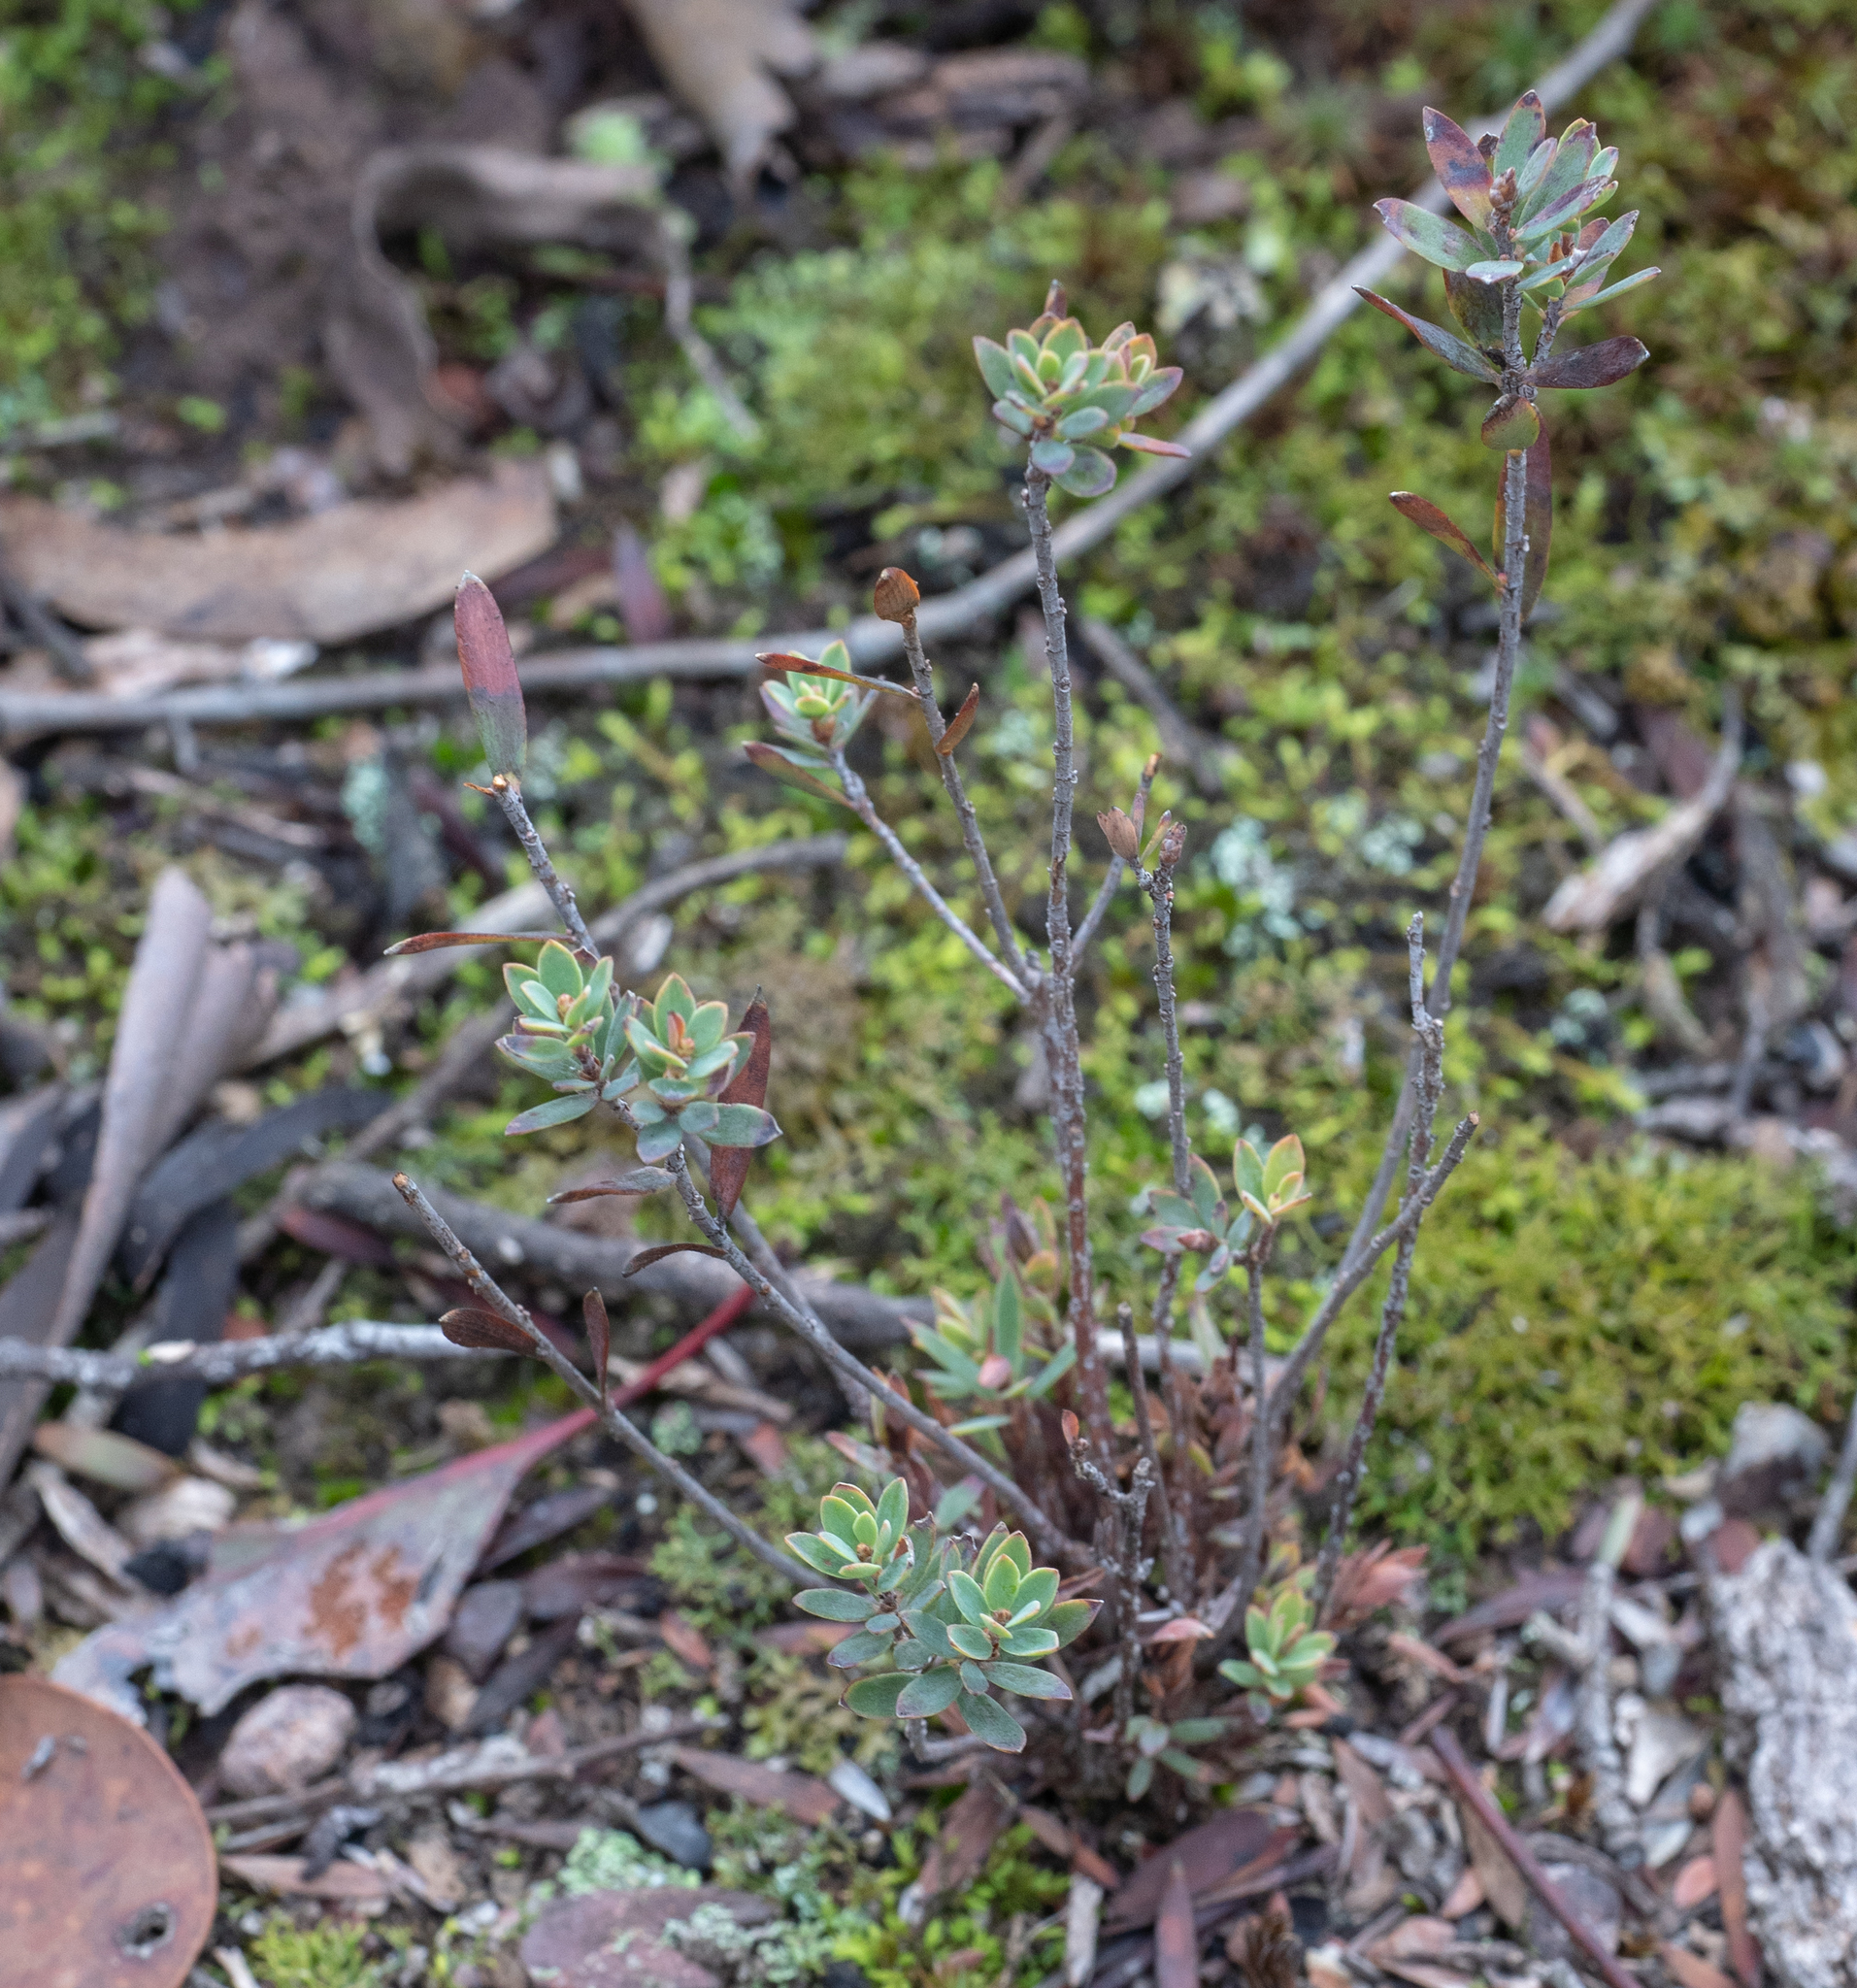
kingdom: Plantae
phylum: Tracheophyta
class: Magnoliopsida
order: Ericales
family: Ericaceae
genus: Brachyloma
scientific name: Brachyloma daphnoides
